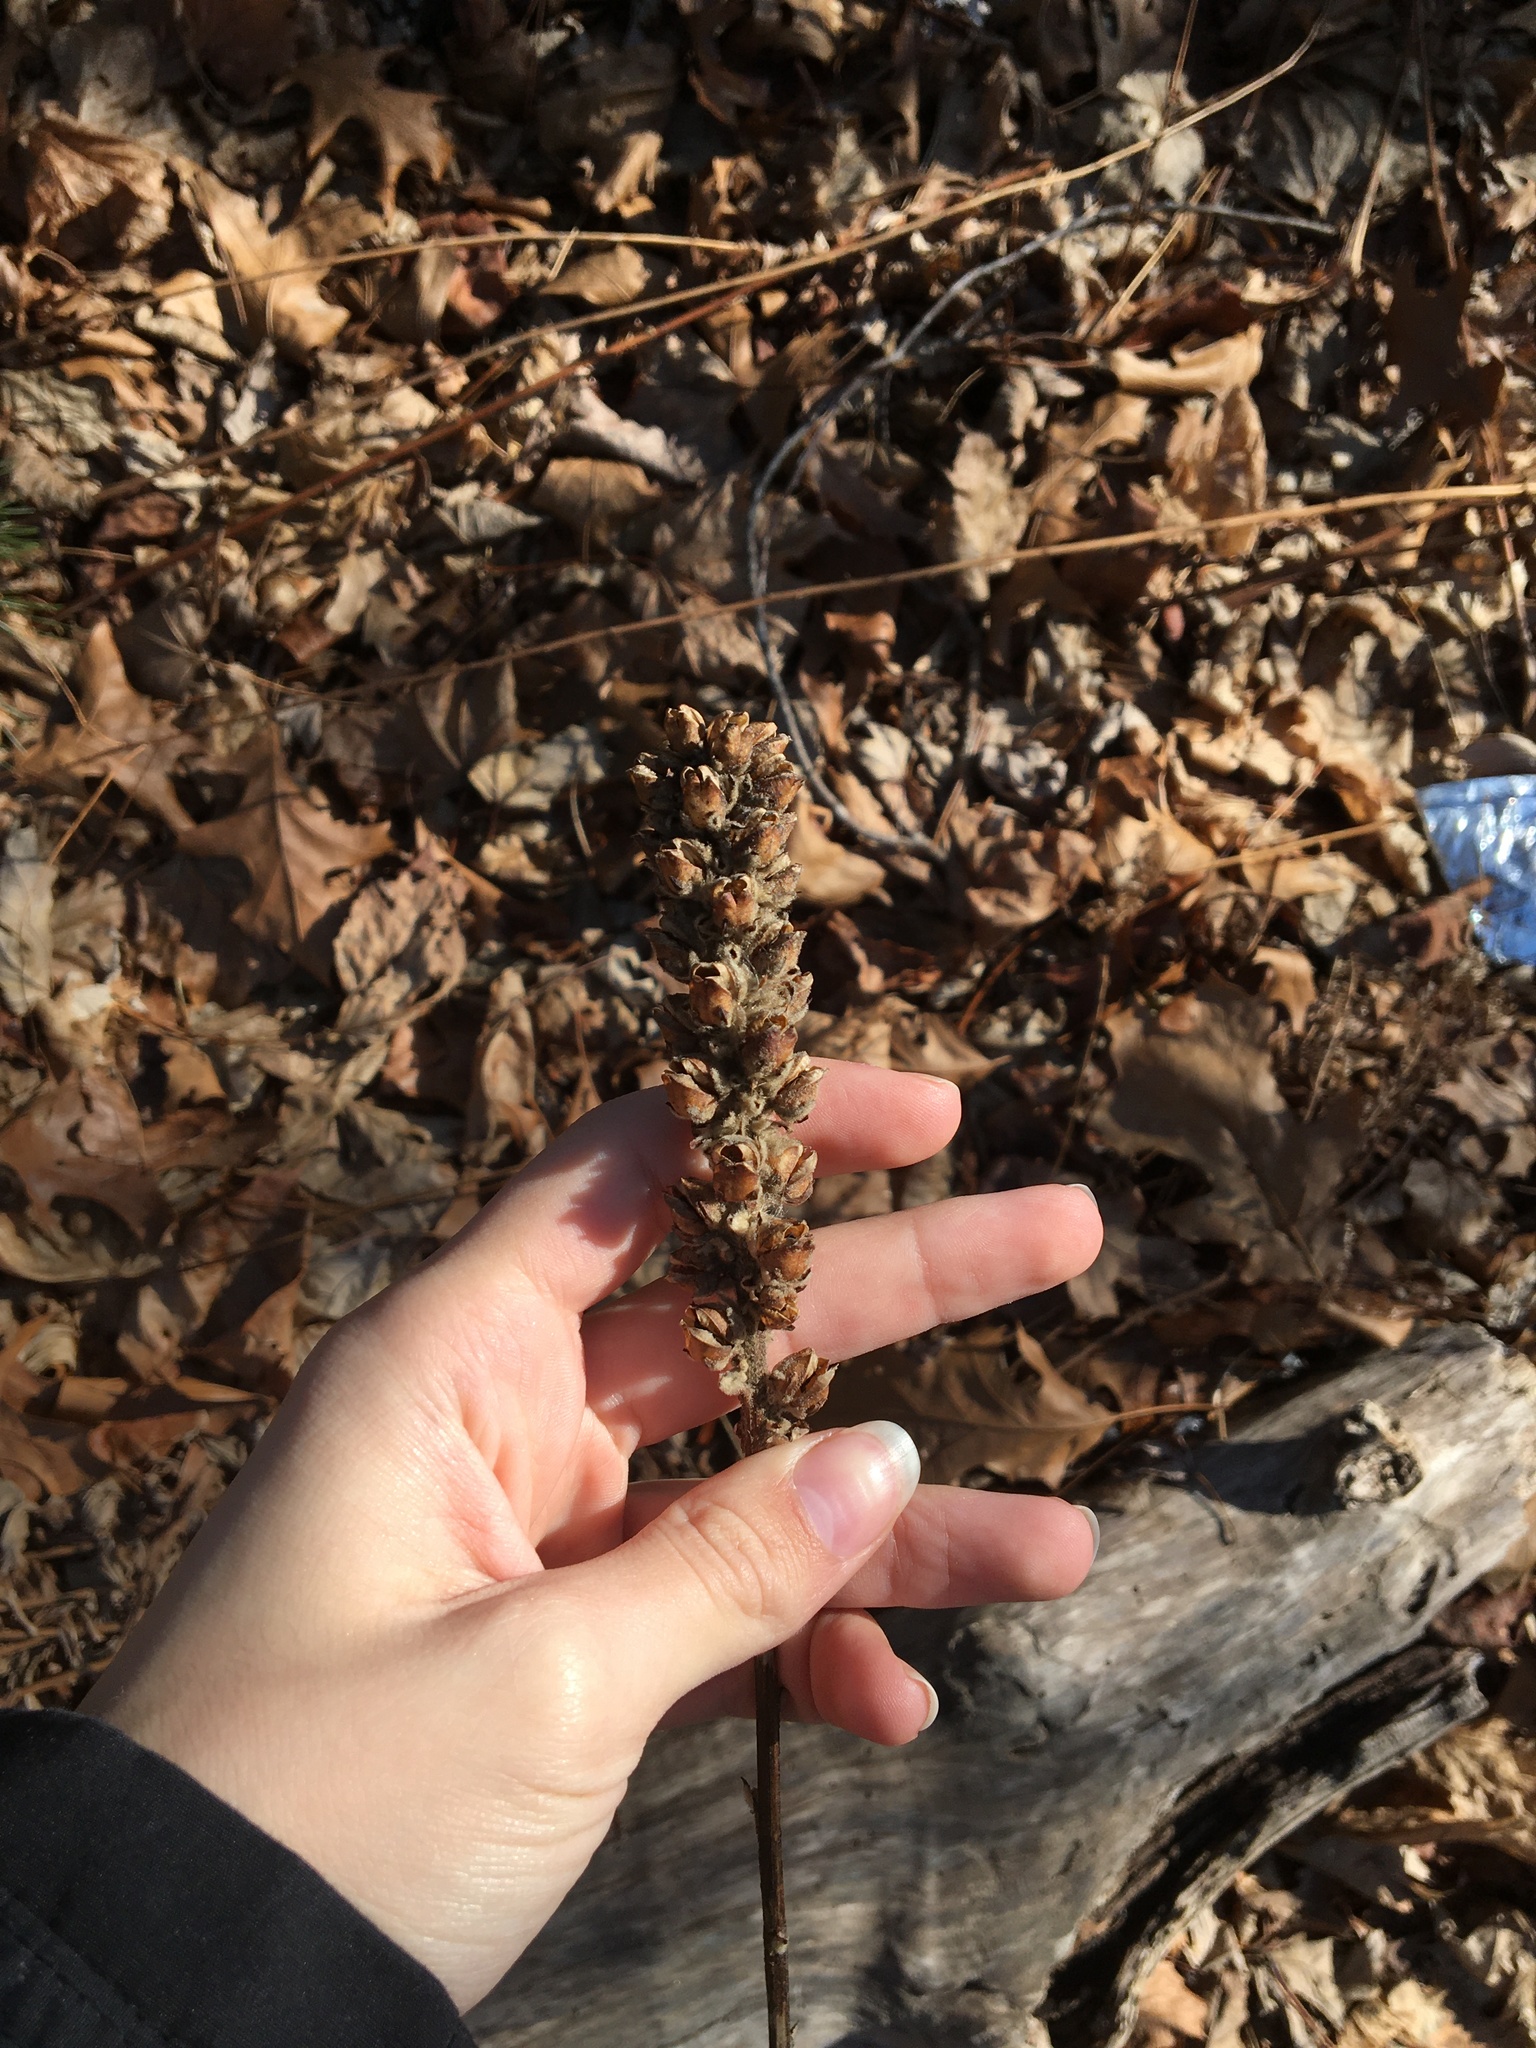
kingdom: Plantae
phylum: Tracheophyta
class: Magnoliopsida
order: Lamiales
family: Scrophulariaceae
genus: Verbascum
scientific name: Verbascum thapsus
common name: Common mullein
